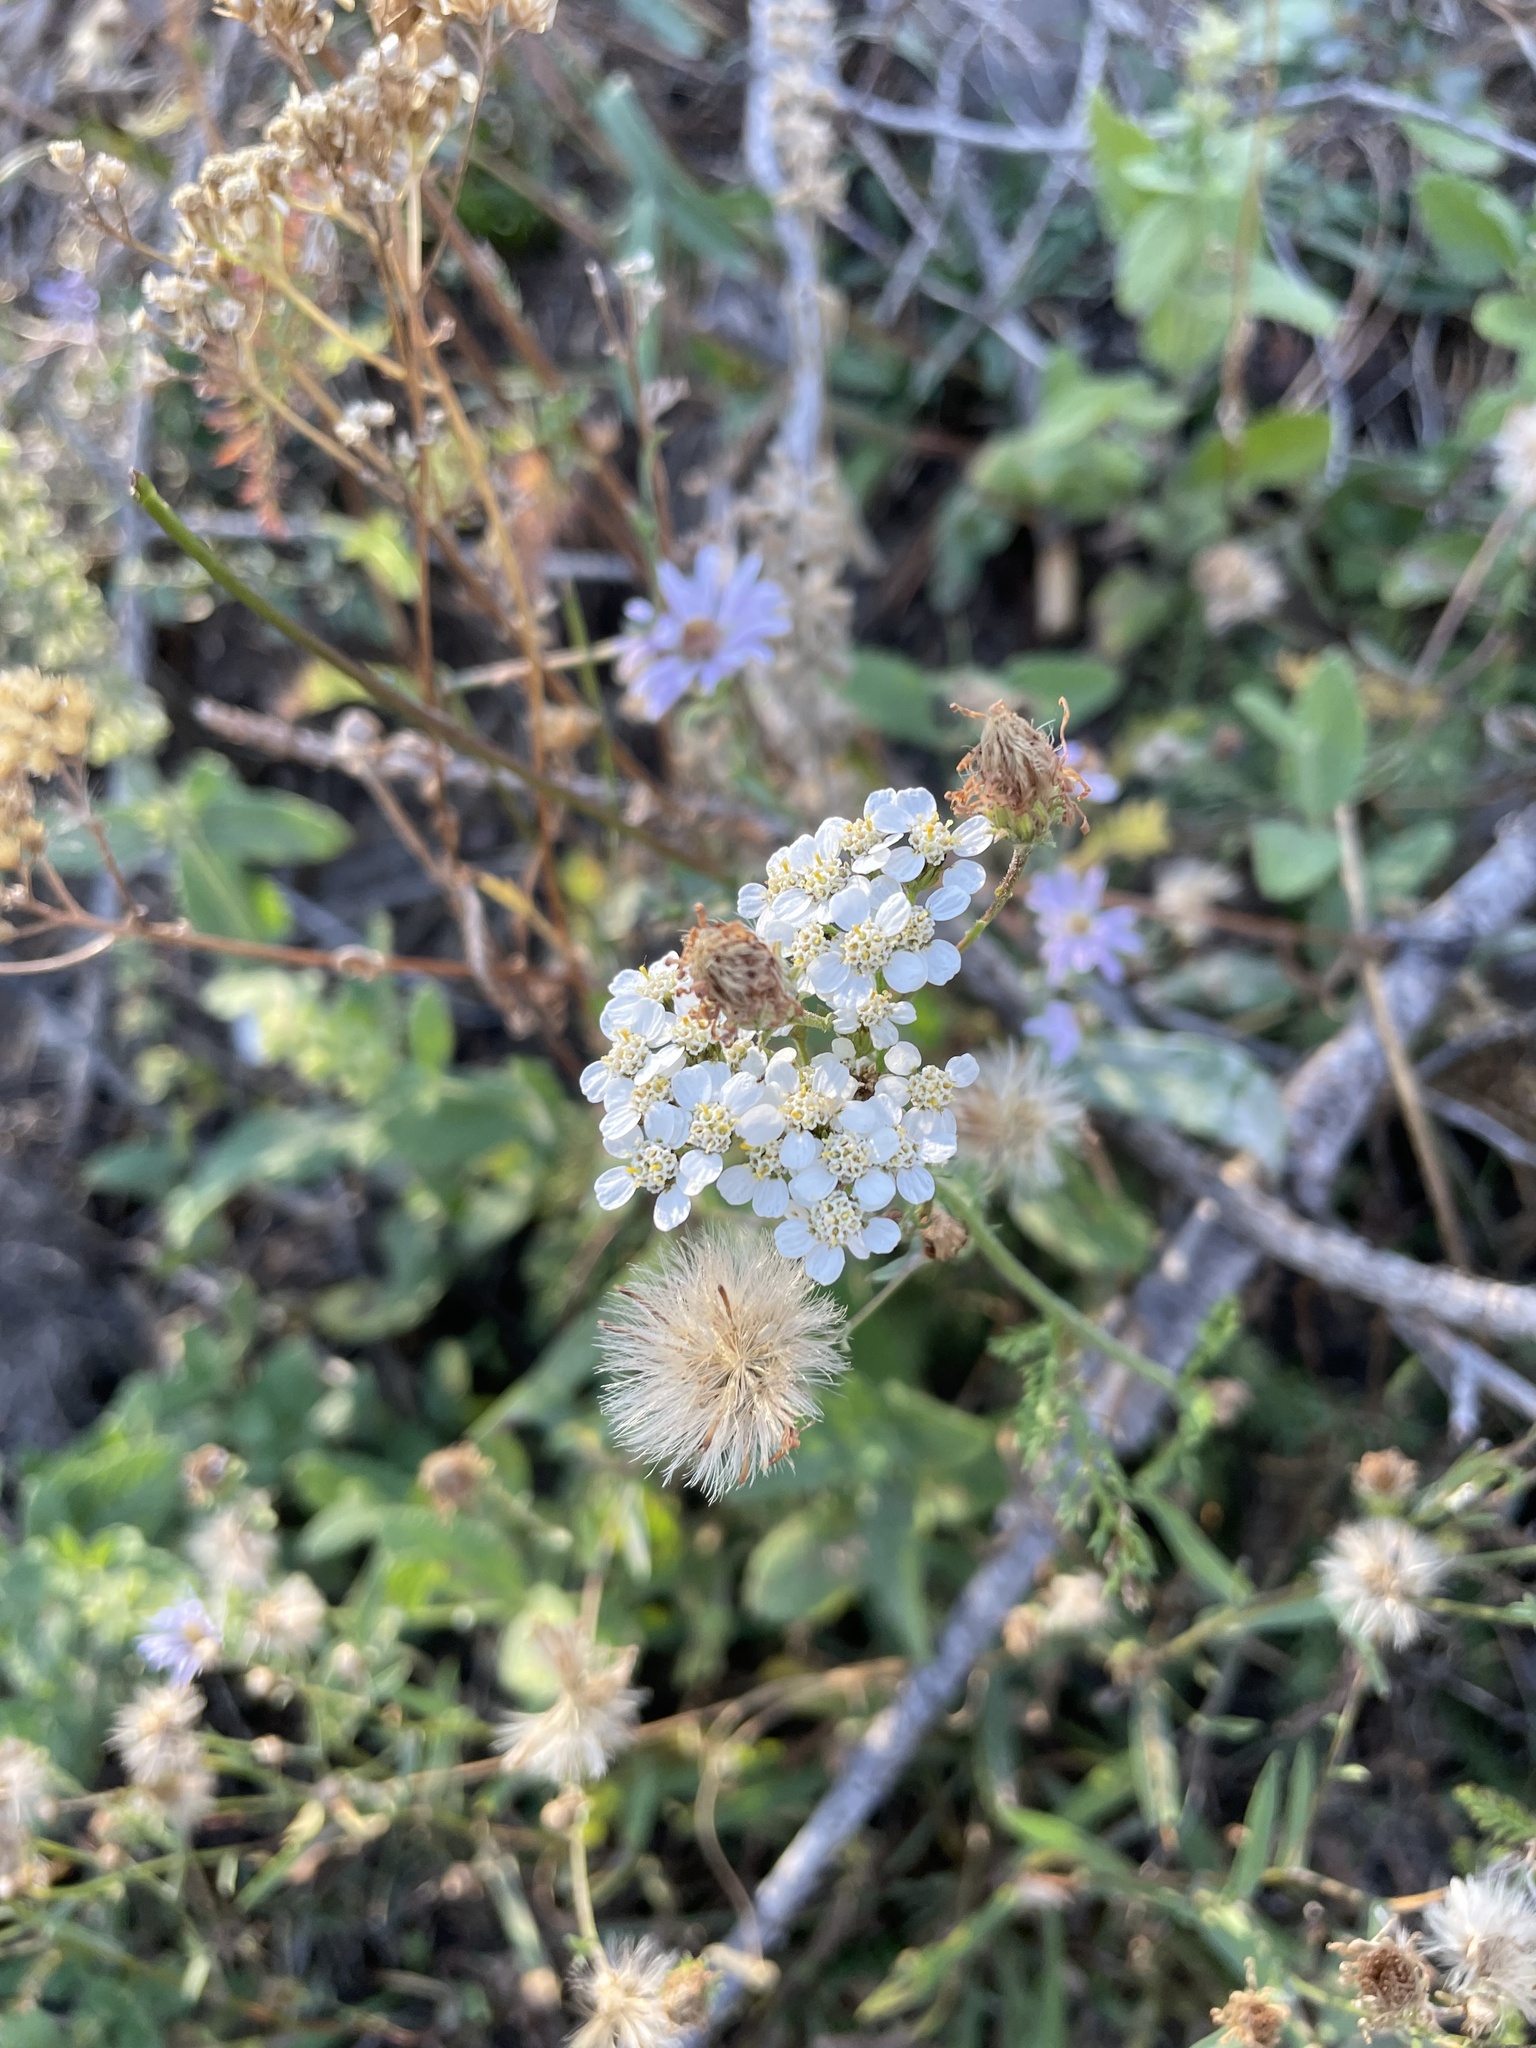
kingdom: Plantae
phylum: Tracheophyta
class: Magnoliopsida
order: Asterales
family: Asteraceae
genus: Achillea
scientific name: Achillea millefolium
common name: Yarrow
